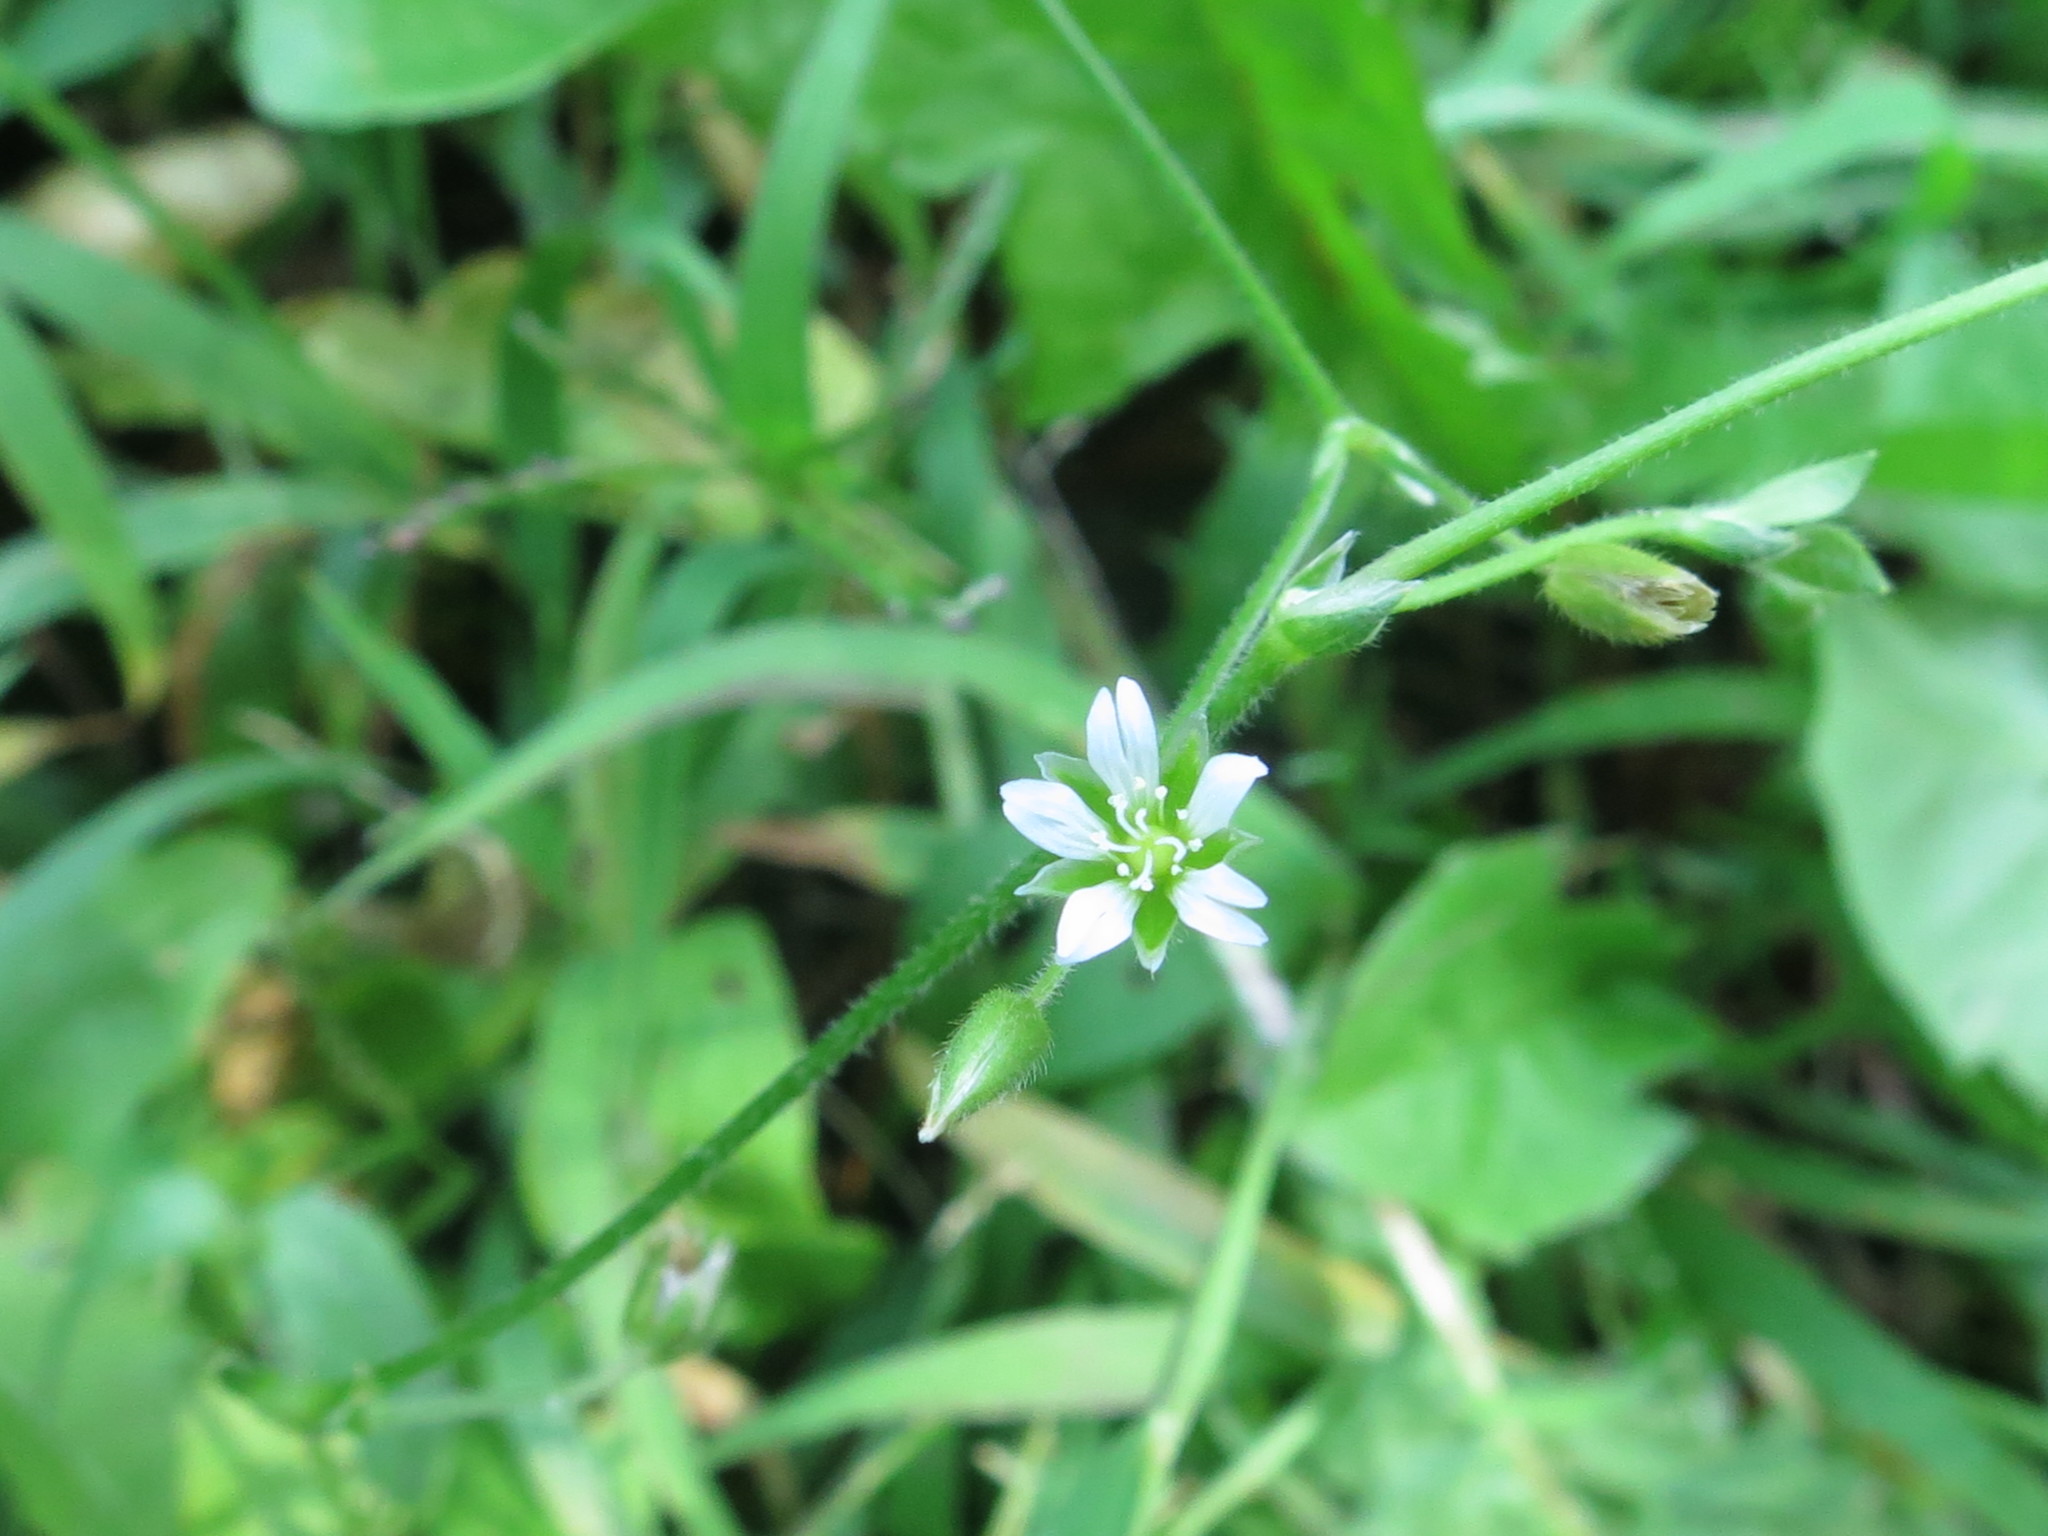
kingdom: Plantae
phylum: Tracheophyta
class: Magnoliopsida
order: Caryophyllales
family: Caryophyllaceae
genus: Cerastium
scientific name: Cerastium holosteoides
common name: Big chickweed
